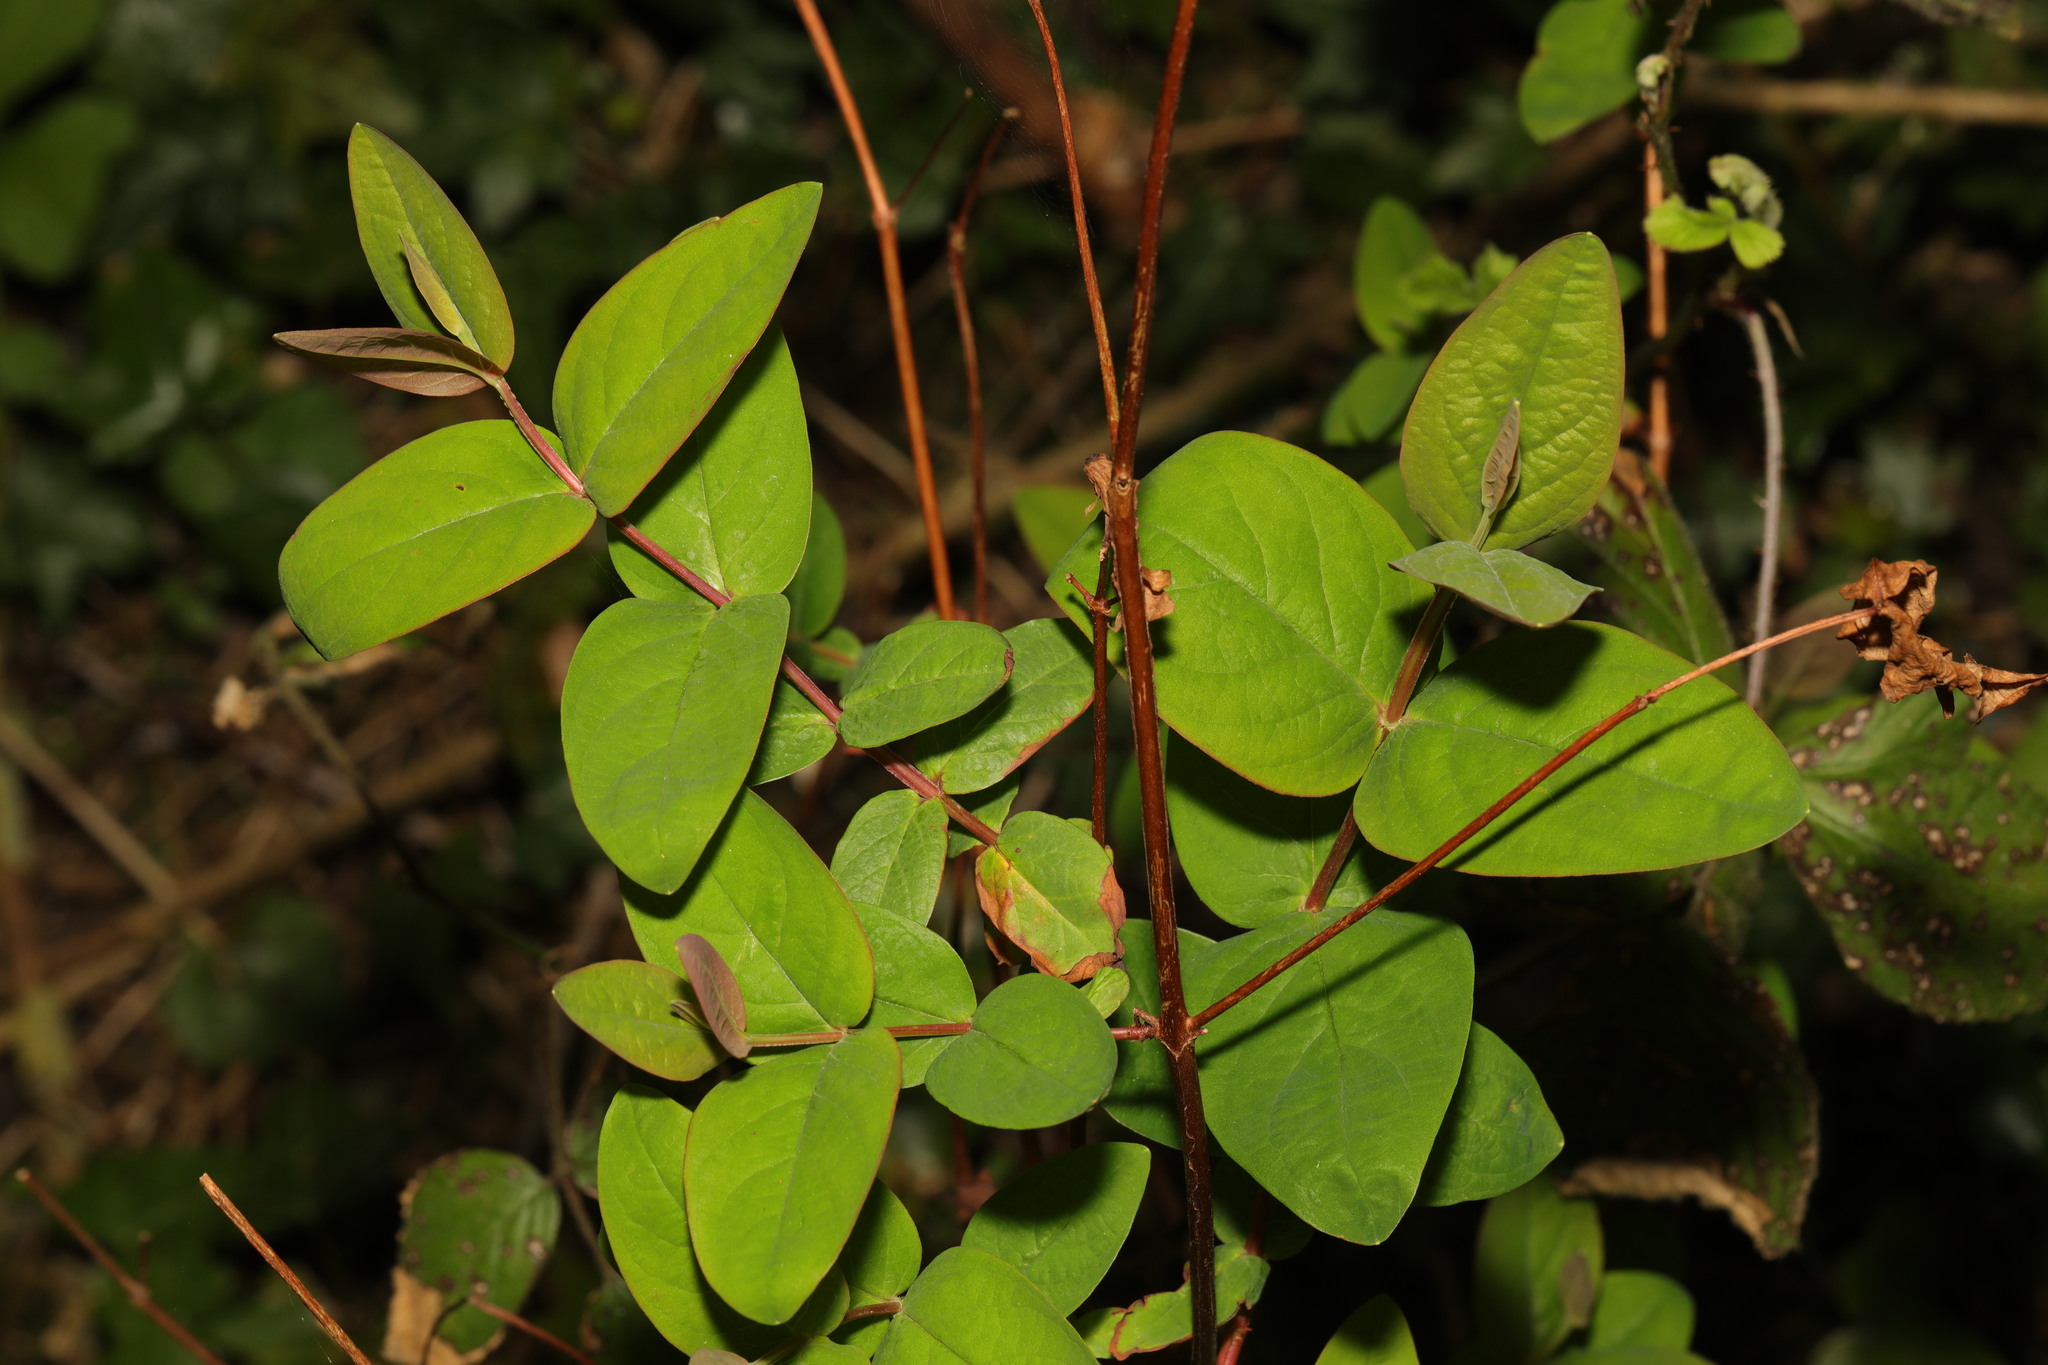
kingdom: Plantae
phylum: Tracheophyta
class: Magnoliopsida
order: Malpighiales
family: Hypericaceae
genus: Hypericum
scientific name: Hypericum androsaemum
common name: Sweet-amber
